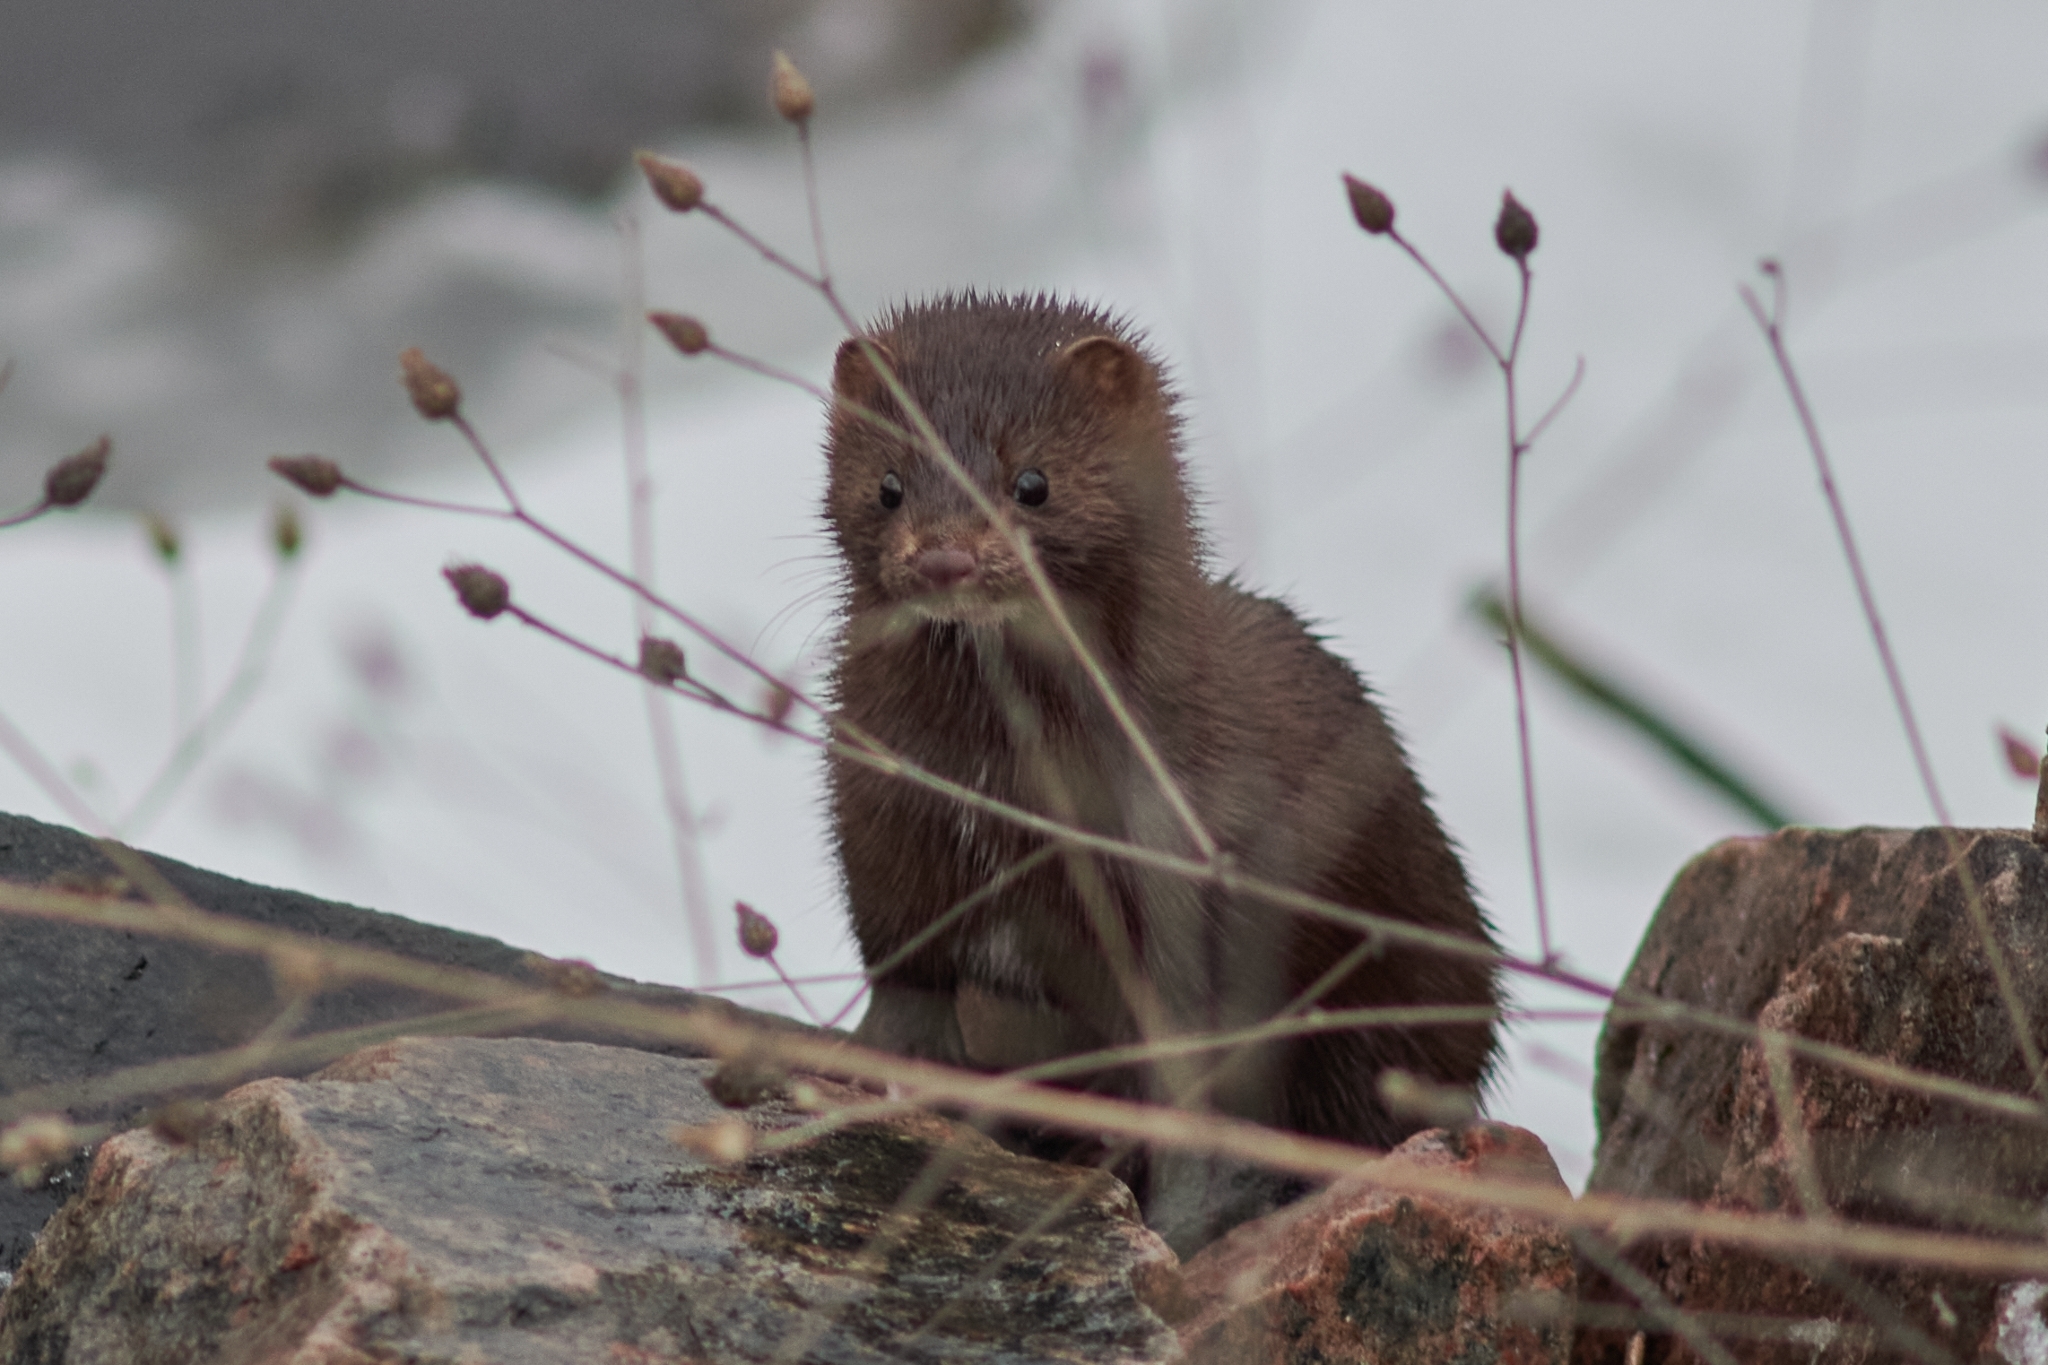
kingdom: Animalia
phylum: Chordata
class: Mammalia
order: Carnivora
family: Mustelidae
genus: Mustela
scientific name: Mustela
